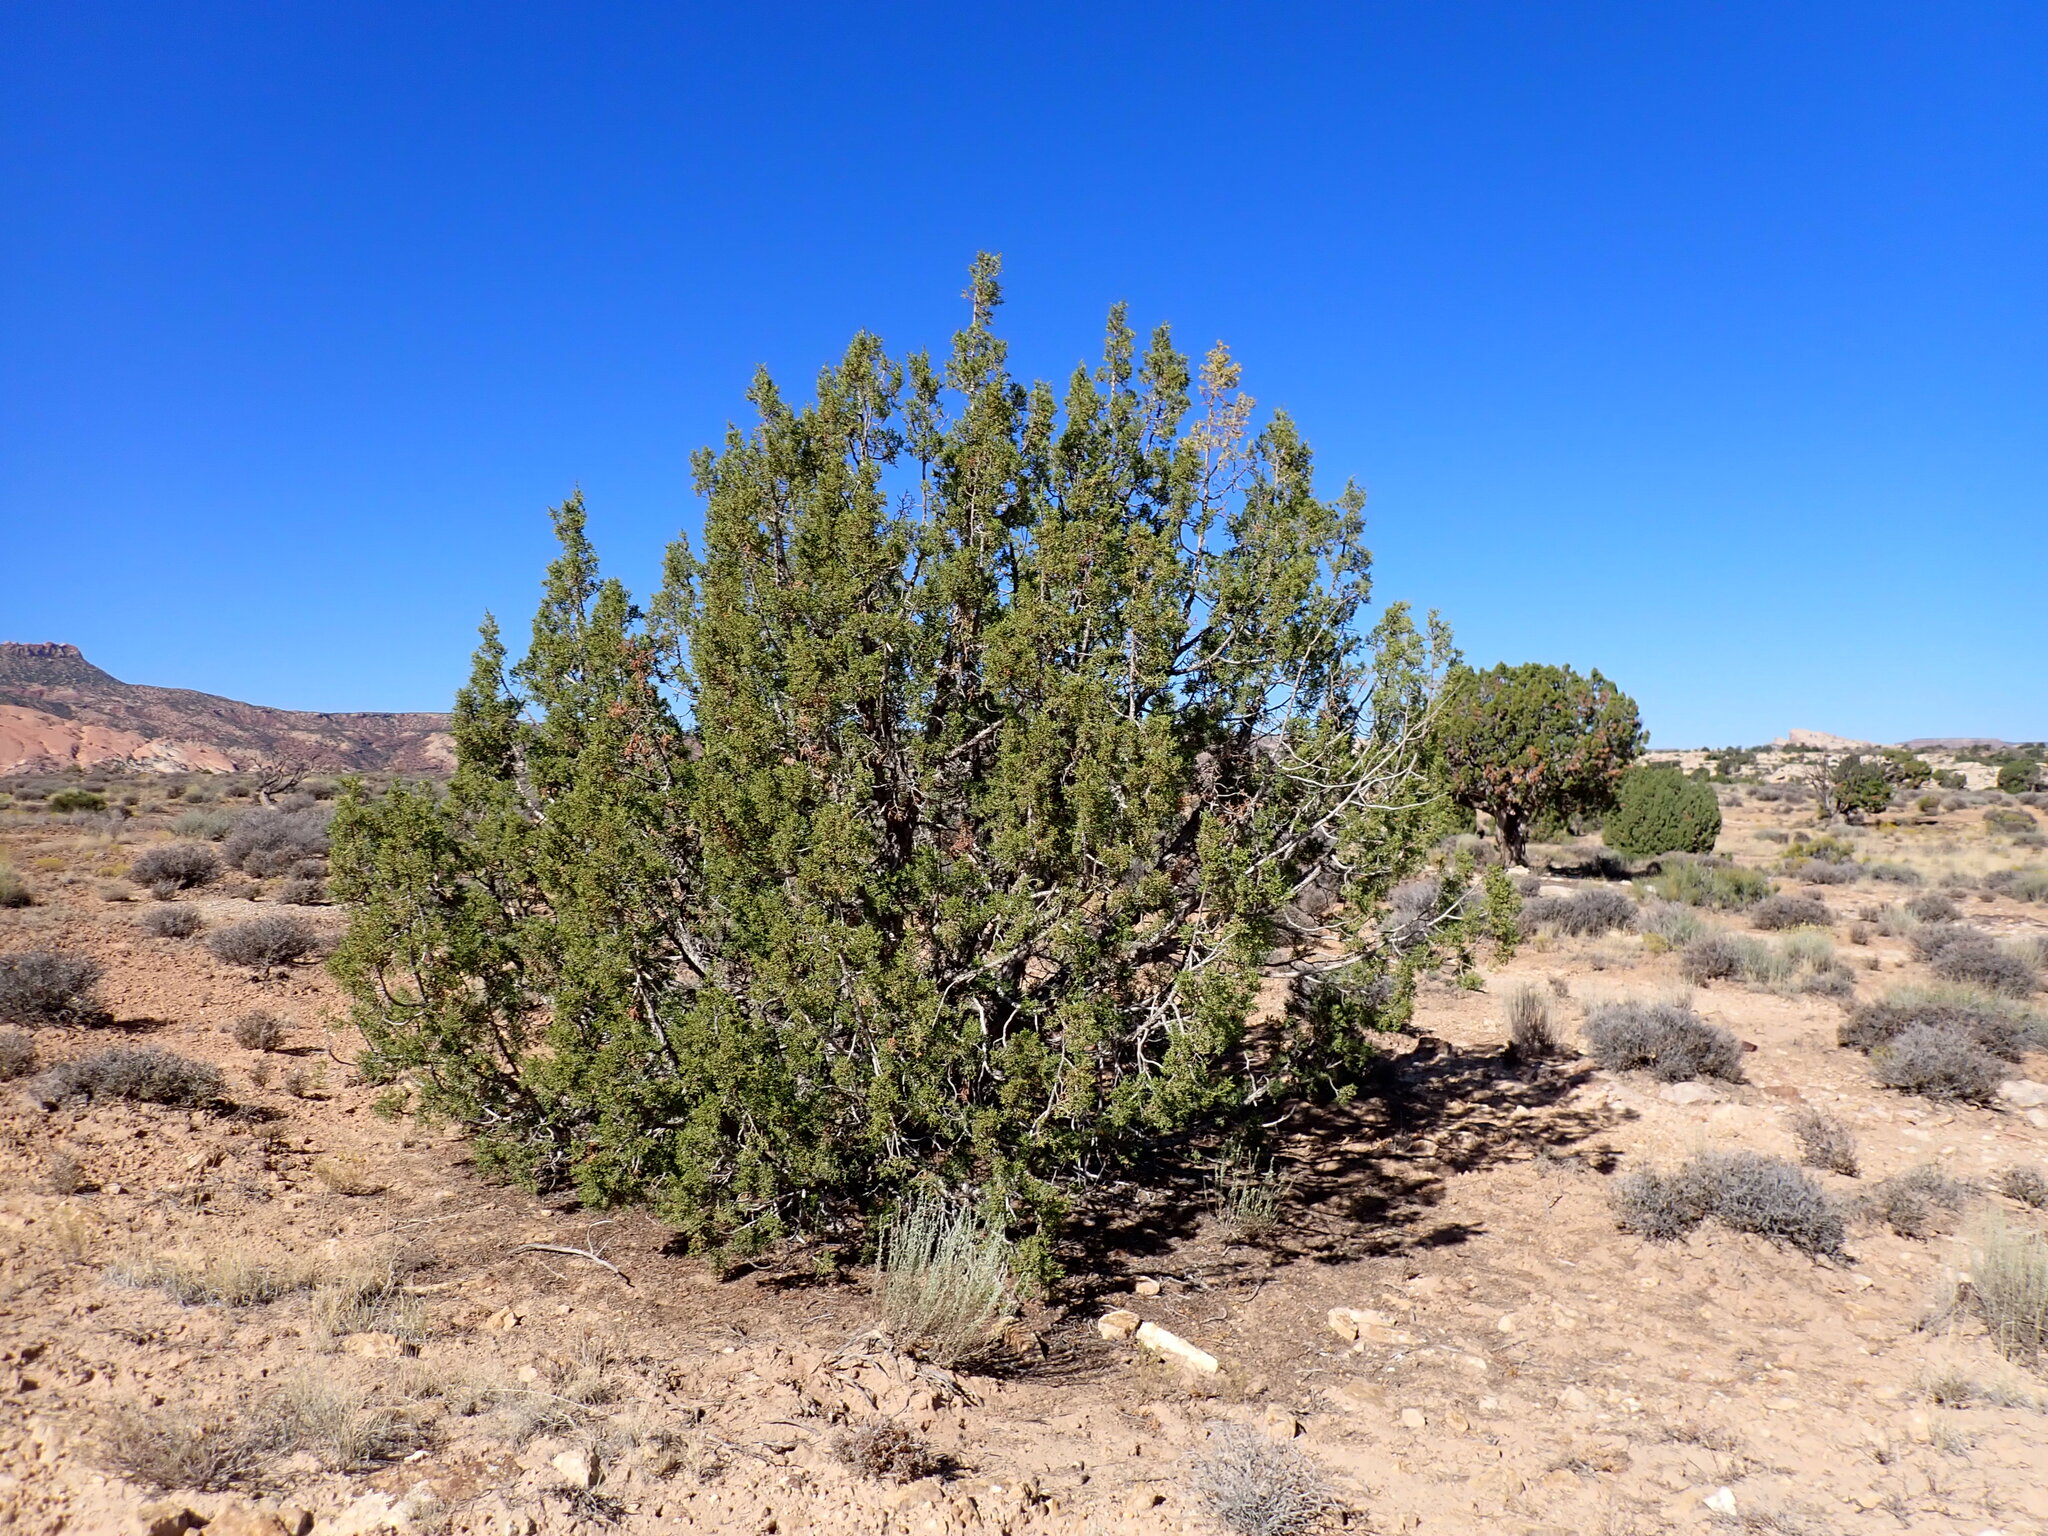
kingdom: Plantae
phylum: Tracheophyta
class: Pinopsida
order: Pinales
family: Cupressaceae
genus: Juniperus
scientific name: Juniperus osteosperma
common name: Utah juniper
